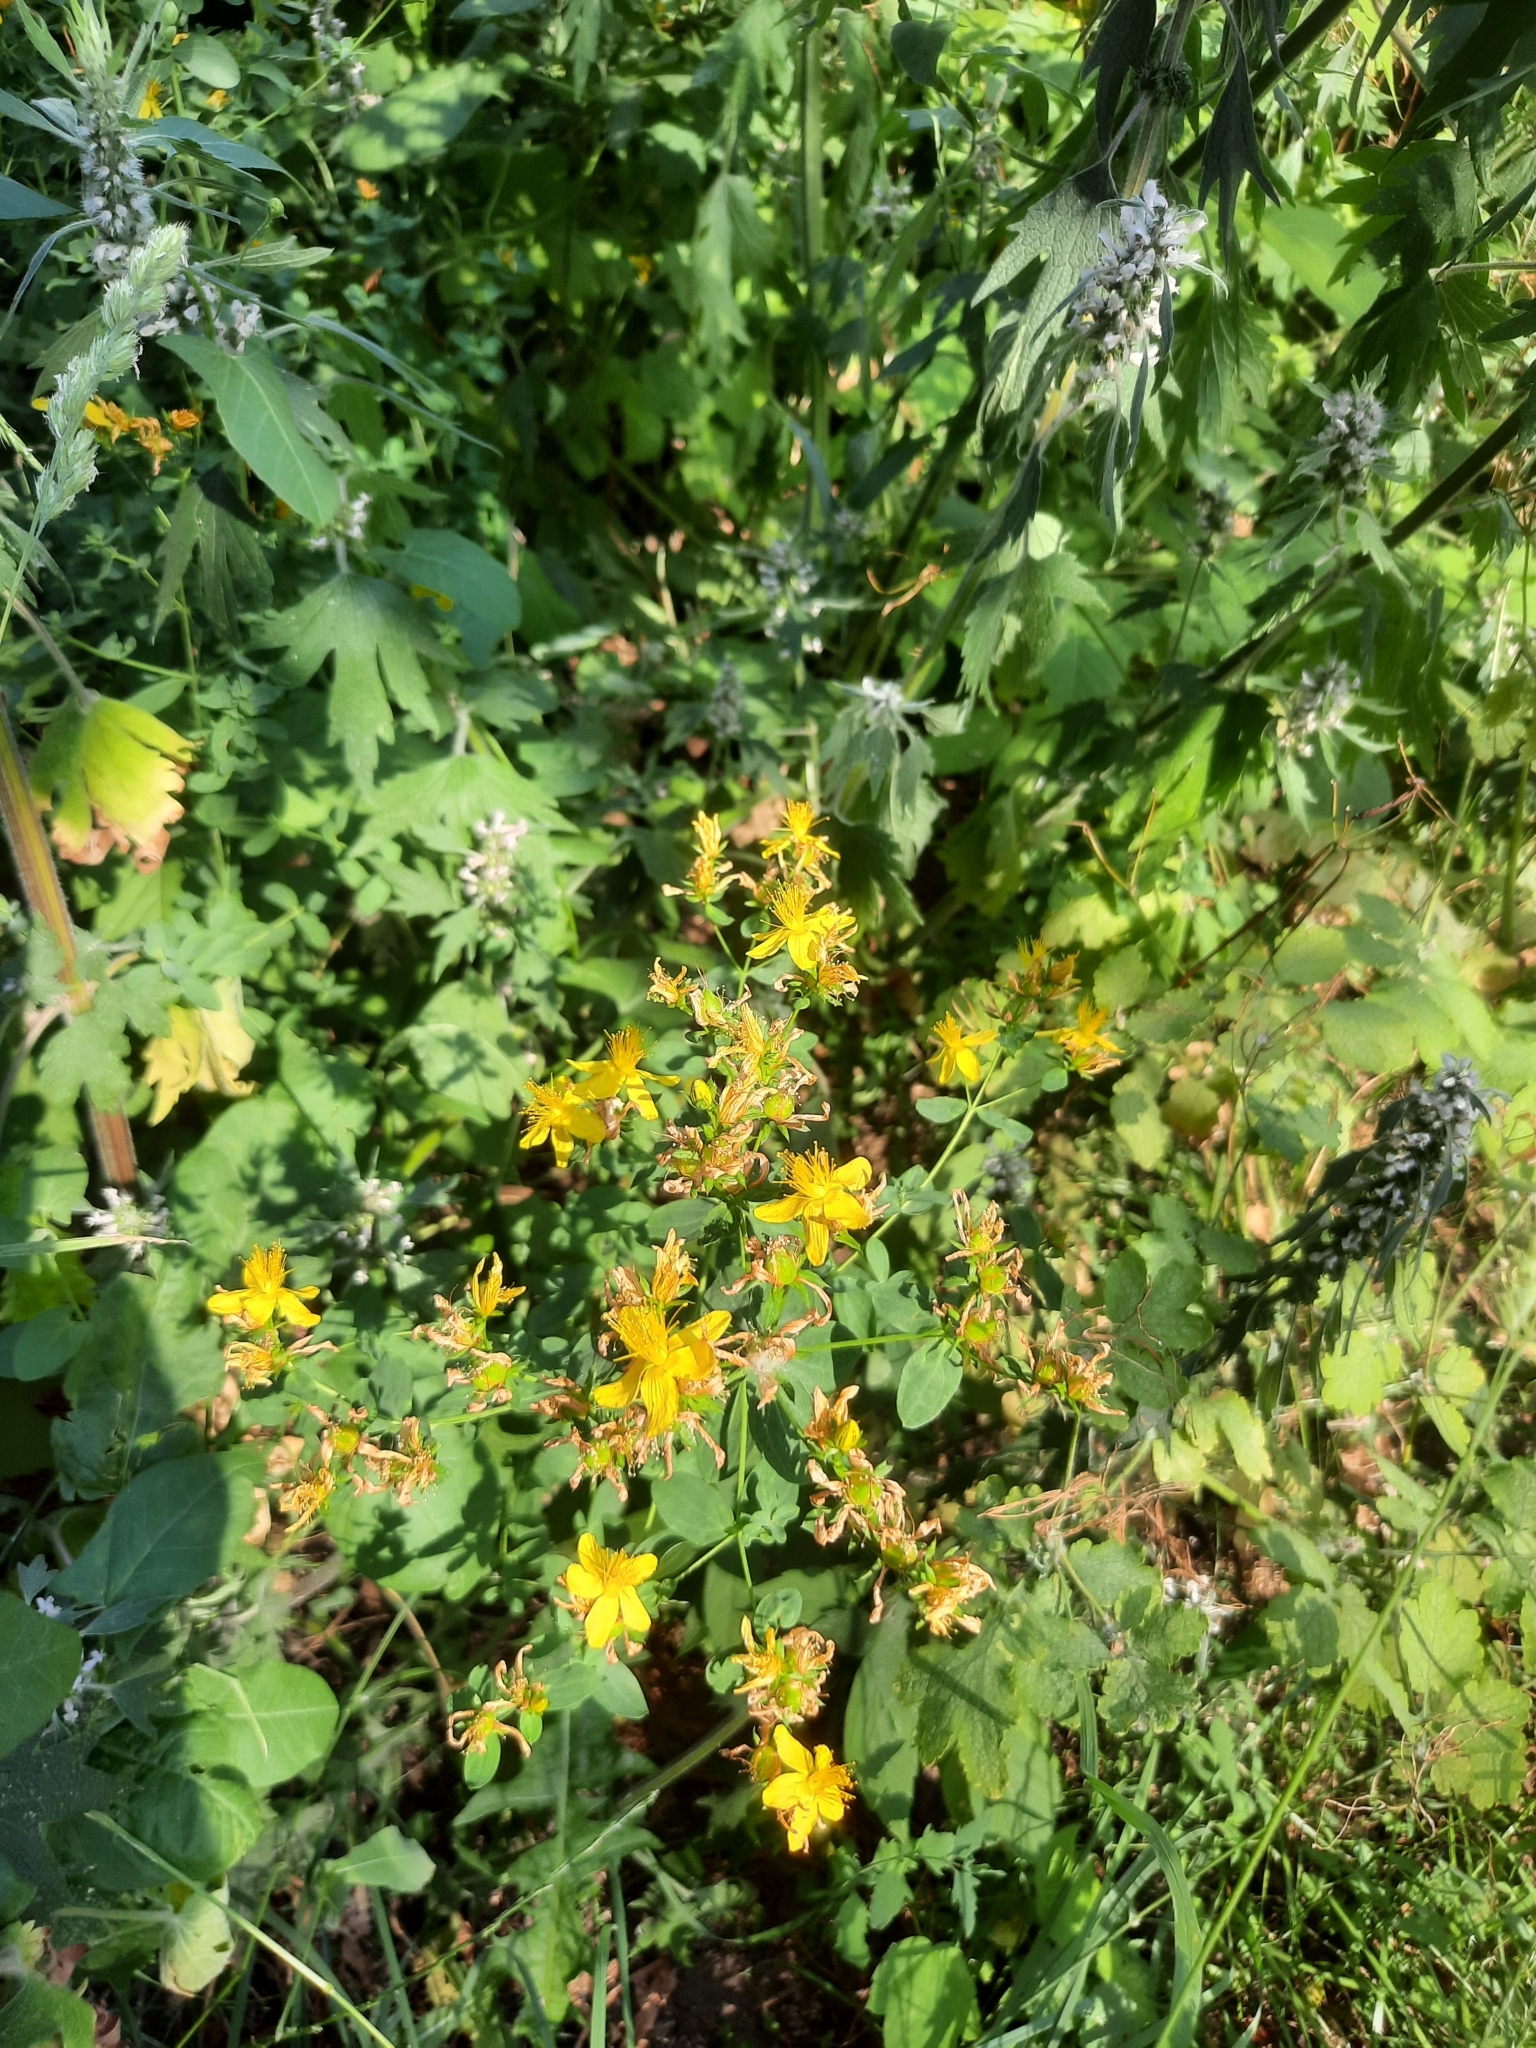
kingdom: Plantae
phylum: Tracheophyta
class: Magnoliopsida
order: Malpighiales
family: Hypericaceae
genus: Hypericum
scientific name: Hypericum perforatum
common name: Common st. johnswort
